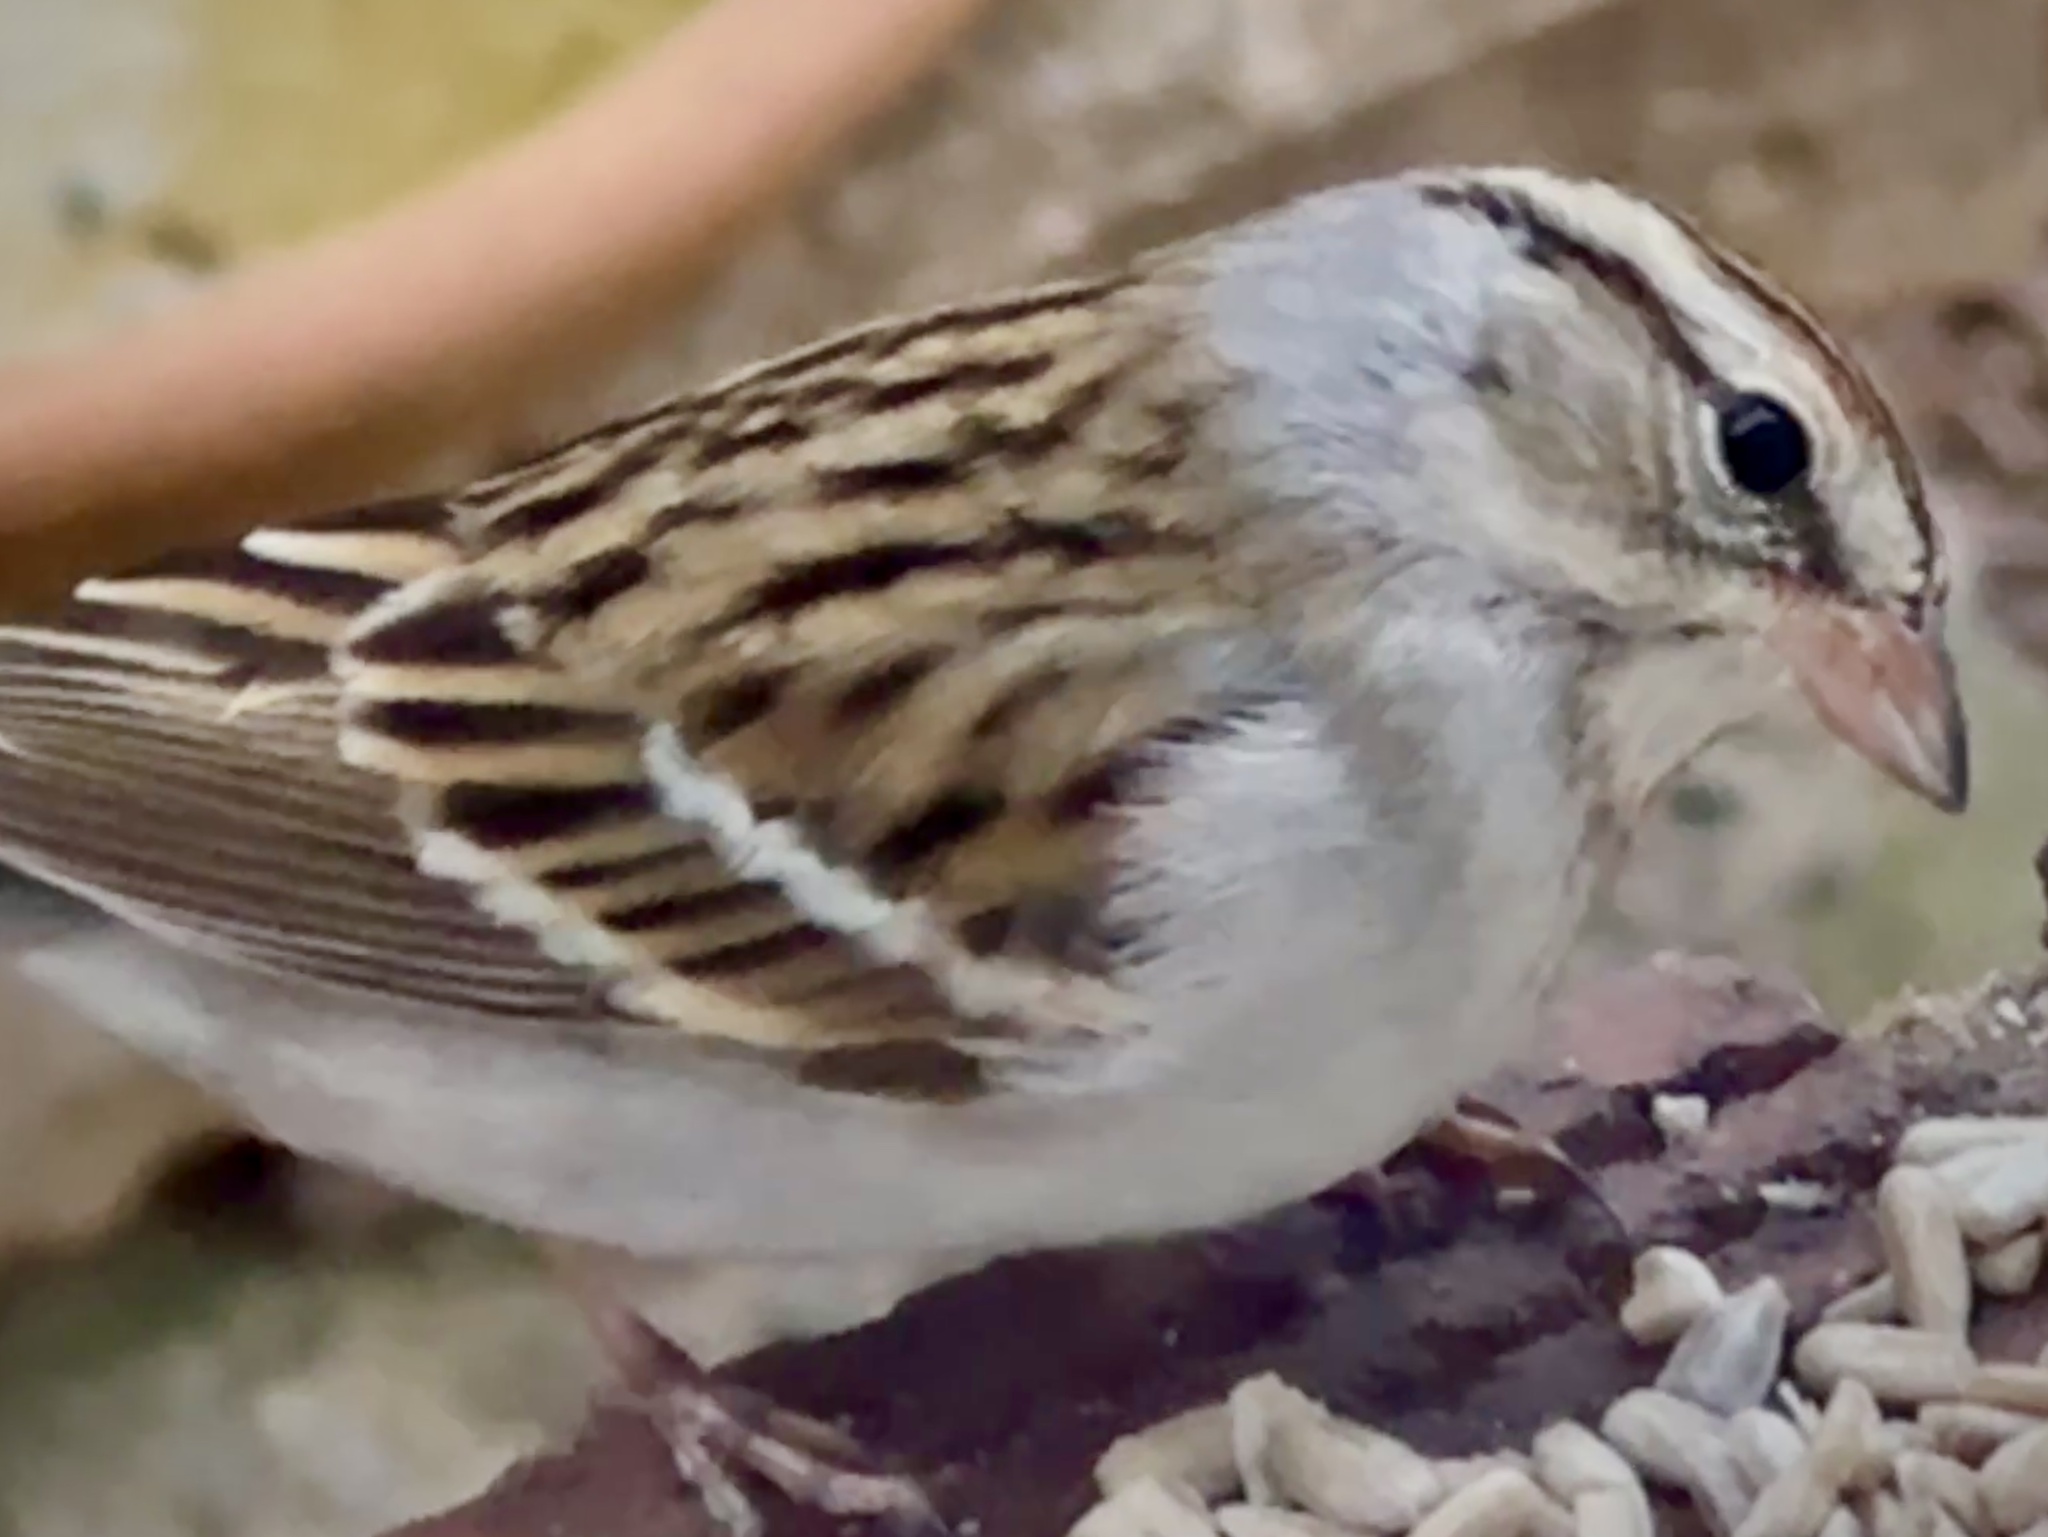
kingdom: Animalia
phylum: Chordata
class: Aves
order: Passeriformes
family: Passerellidae
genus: Spizella
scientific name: Spizella passerina
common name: Chipping sparrow
